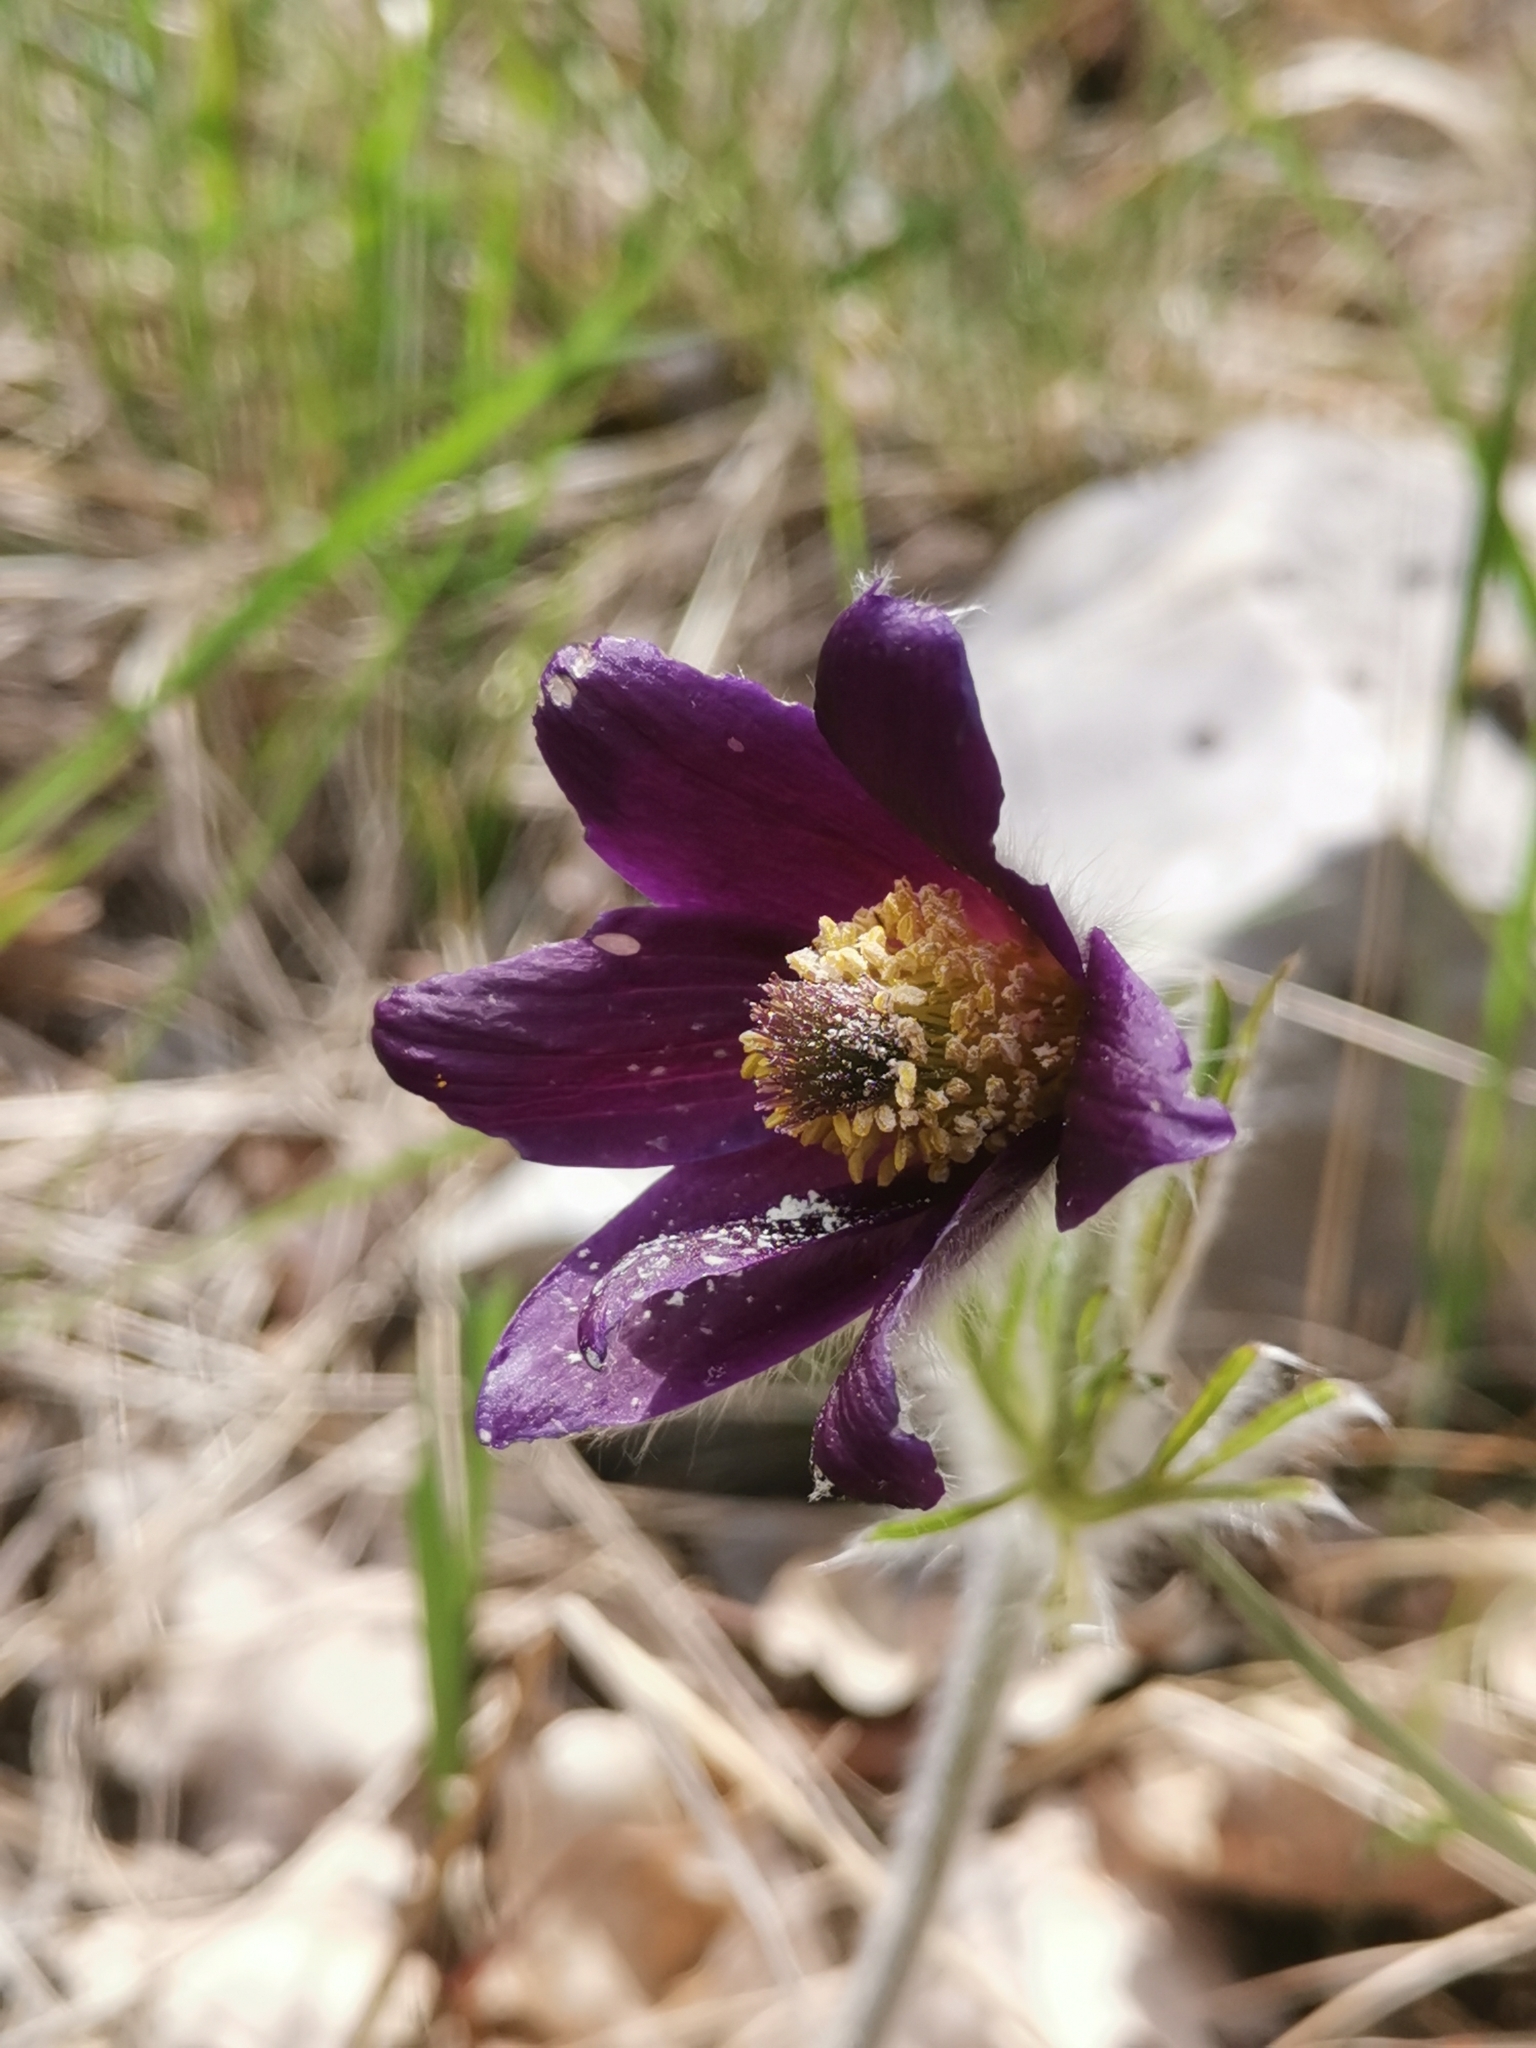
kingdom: Plantae
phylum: Tracheophyta
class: Magnoliopsida
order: Ranunculales
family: Ranunculaceae
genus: Pulsatilla
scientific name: Pulsatilla montana
